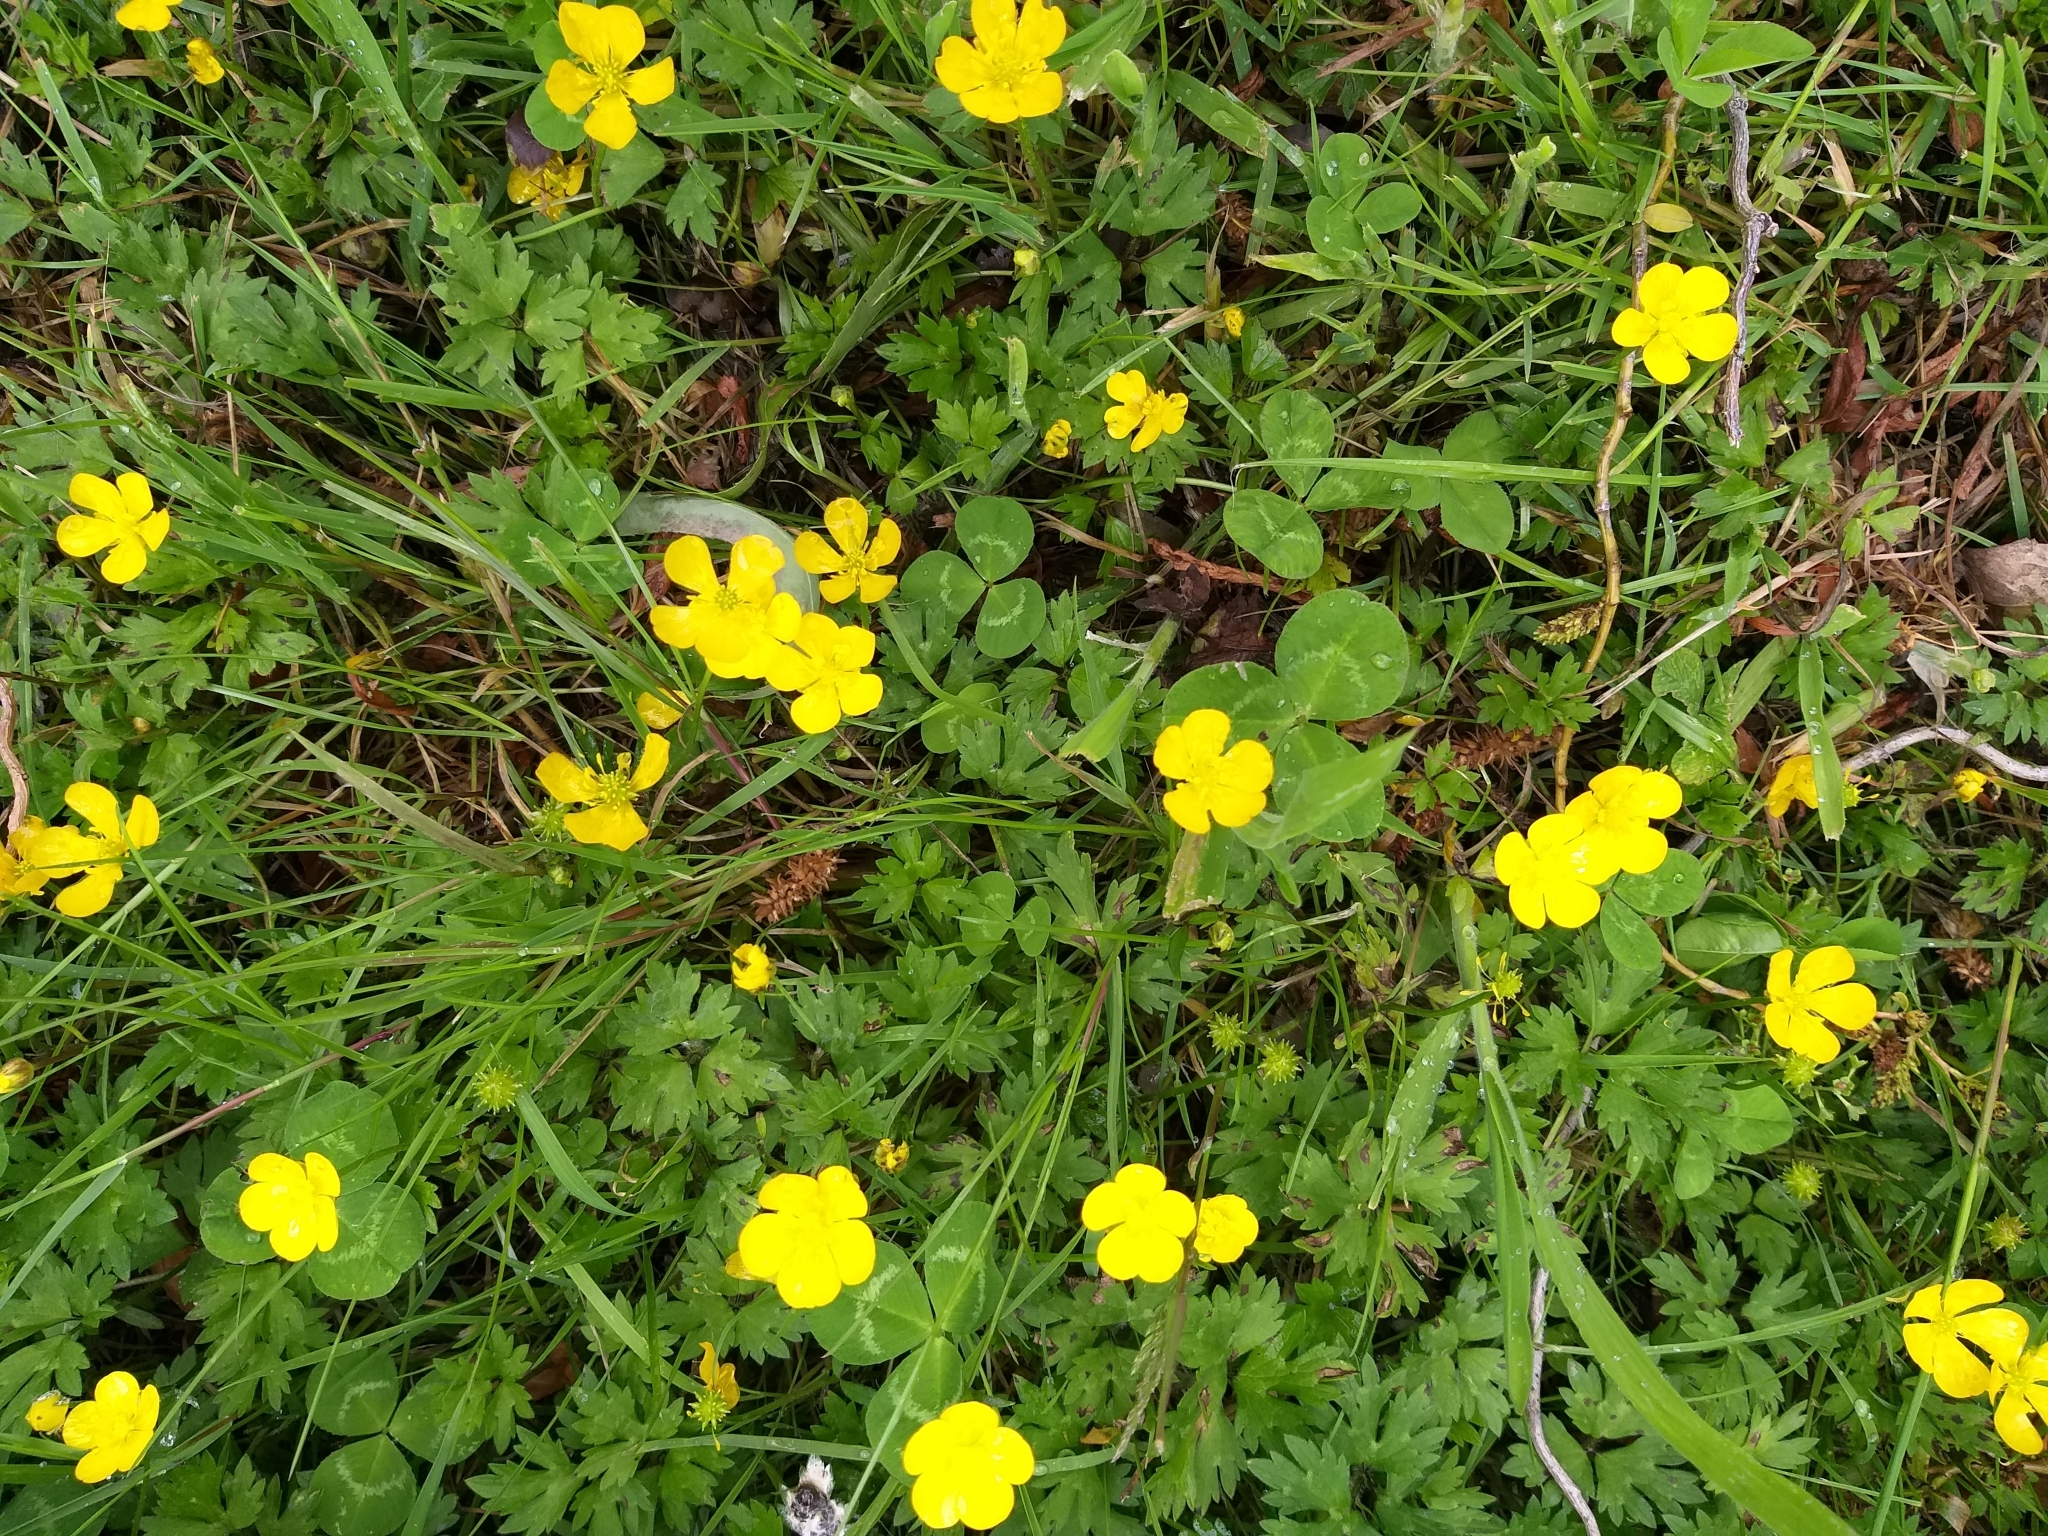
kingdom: Plantae
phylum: Tracheophyta
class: Magnoliopsida
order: Ranunculales
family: Ranunculaceae
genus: Ranunculus
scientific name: Ranunculus repens
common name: Creeping buttercup
